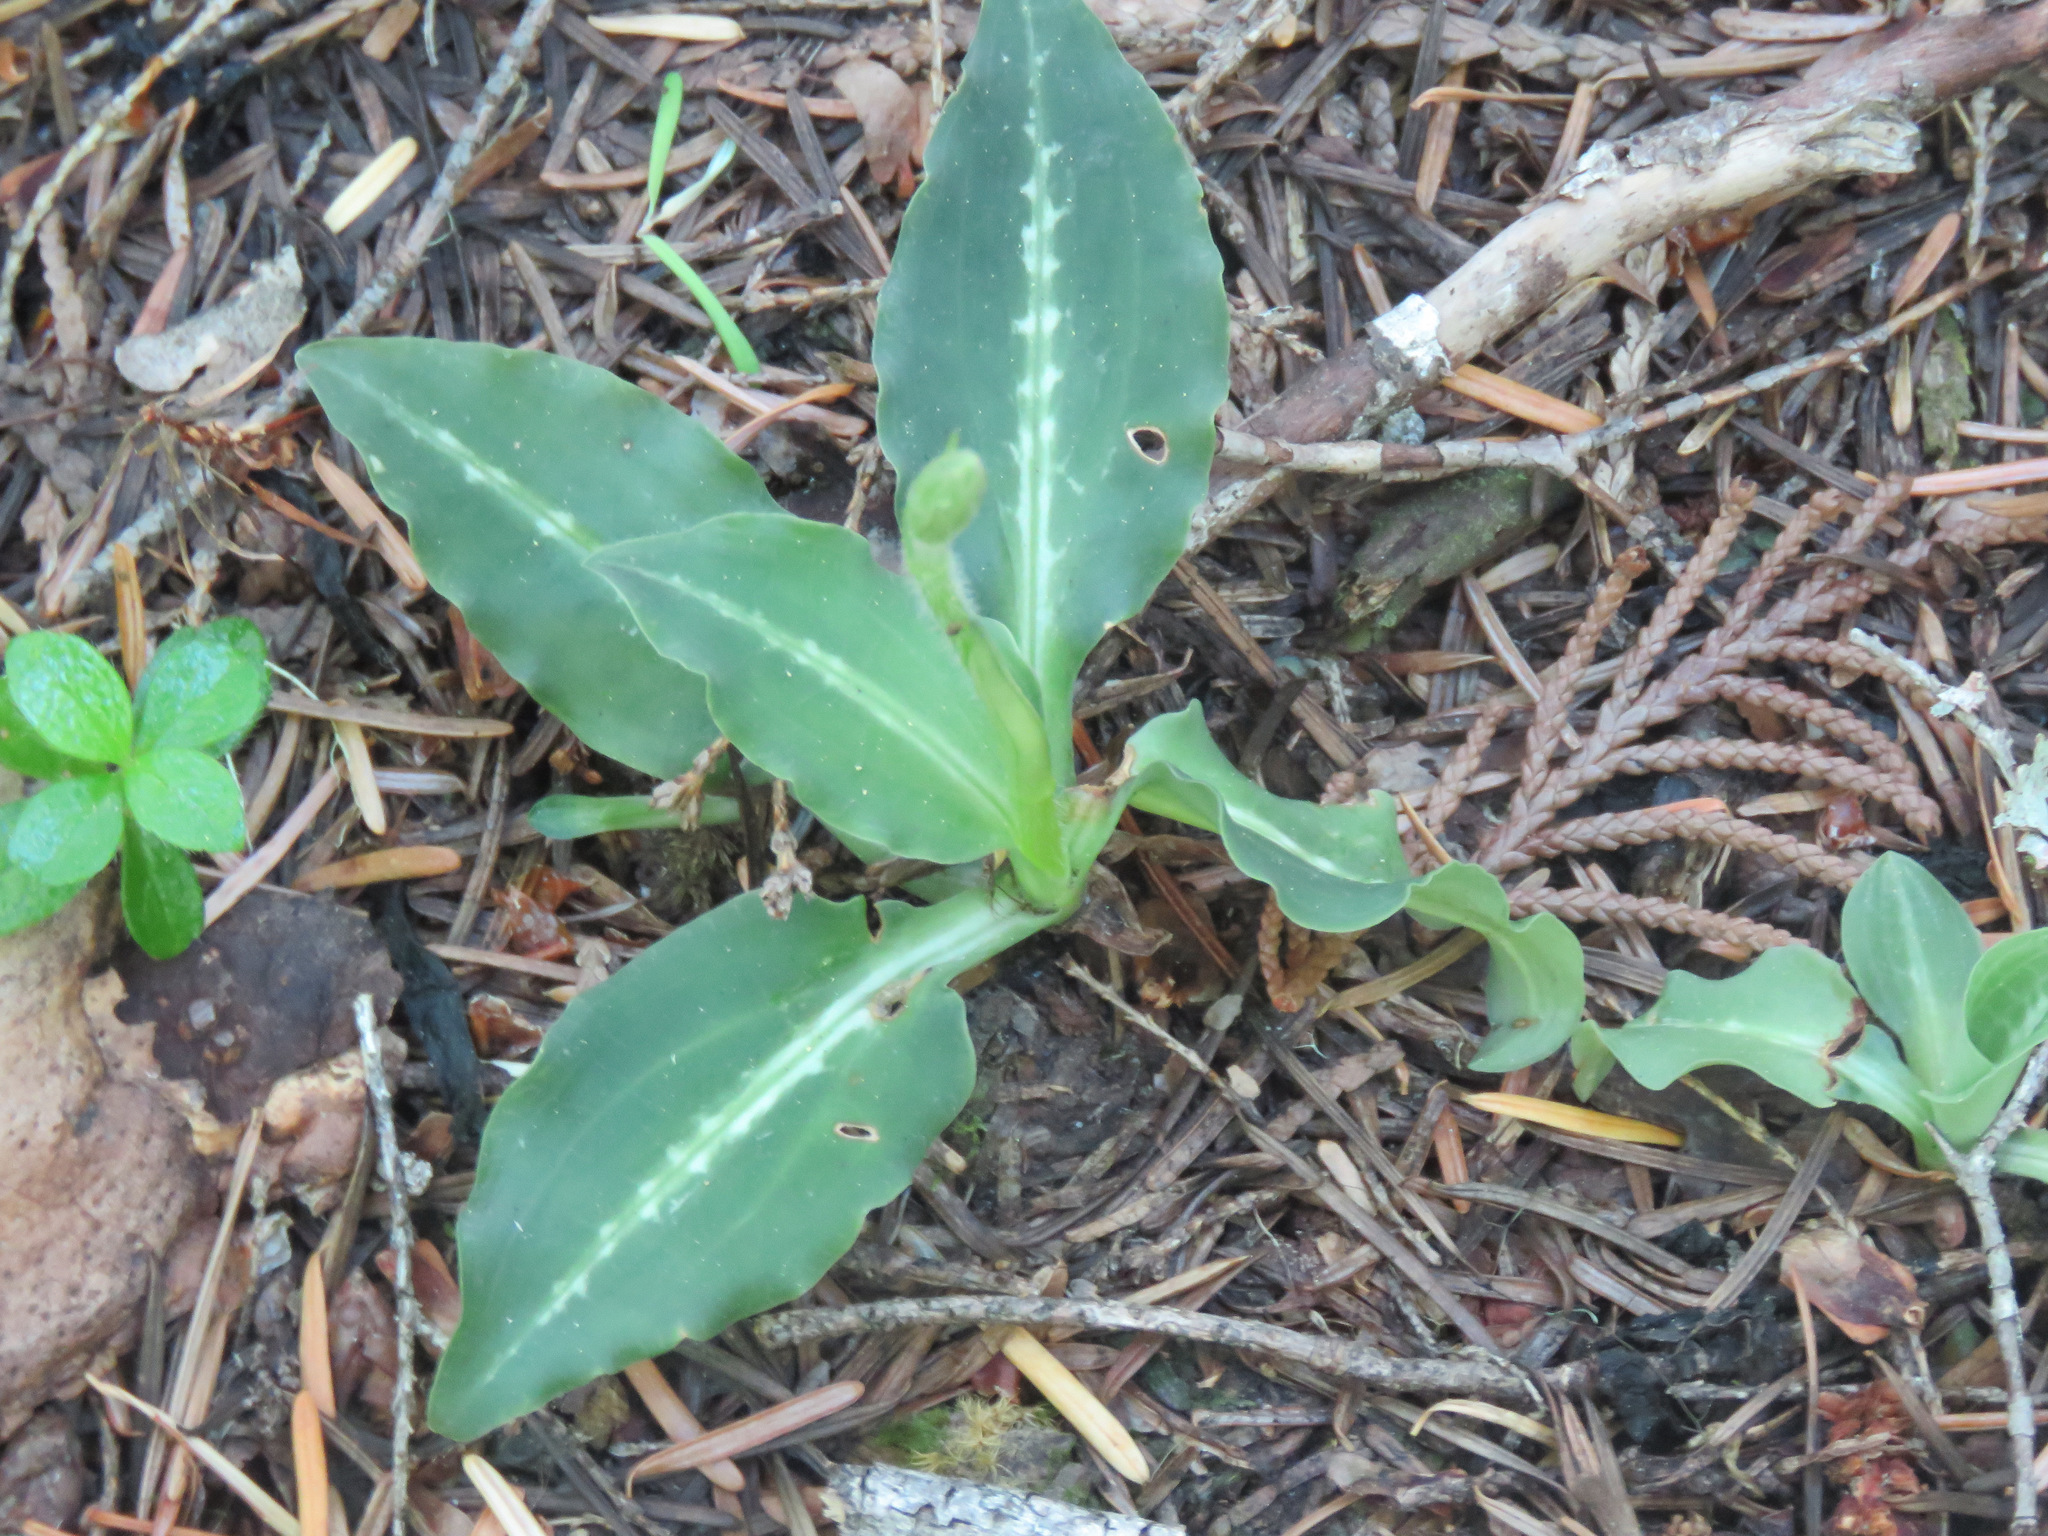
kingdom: Plantae
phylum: Tracheophyta
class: Liliopsida
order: Asparagales
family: Orchidaceae
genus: Goodyera
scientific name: Goodyera oblongifolia
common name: Giant rattlesnake-plantain
